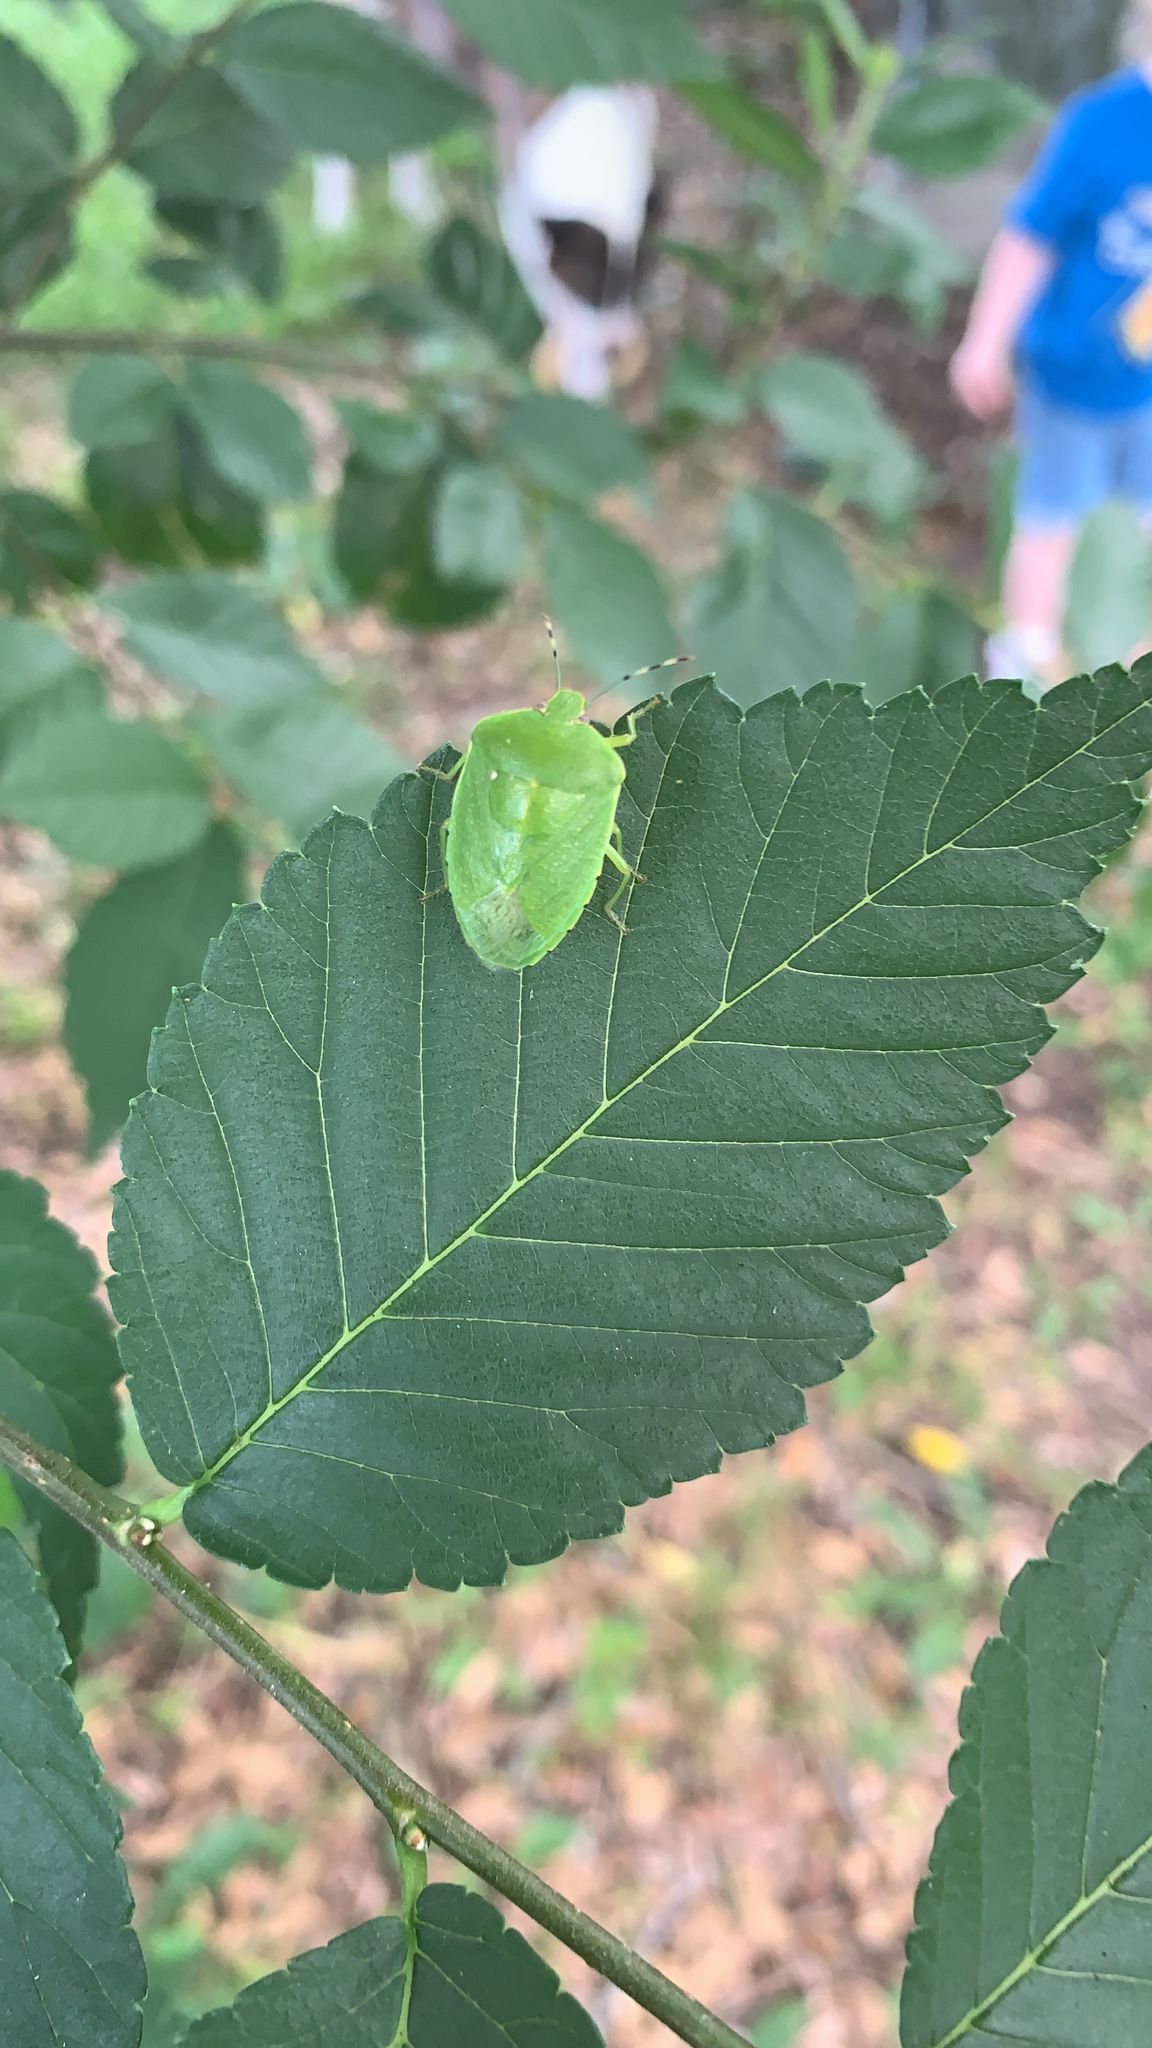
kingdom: Animalia
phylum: Arthropoda
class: Insecta
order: Hemiptera
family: Pentatomidae
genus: Chinavia
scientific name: Chinavia hilaris
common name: Green stink bug
